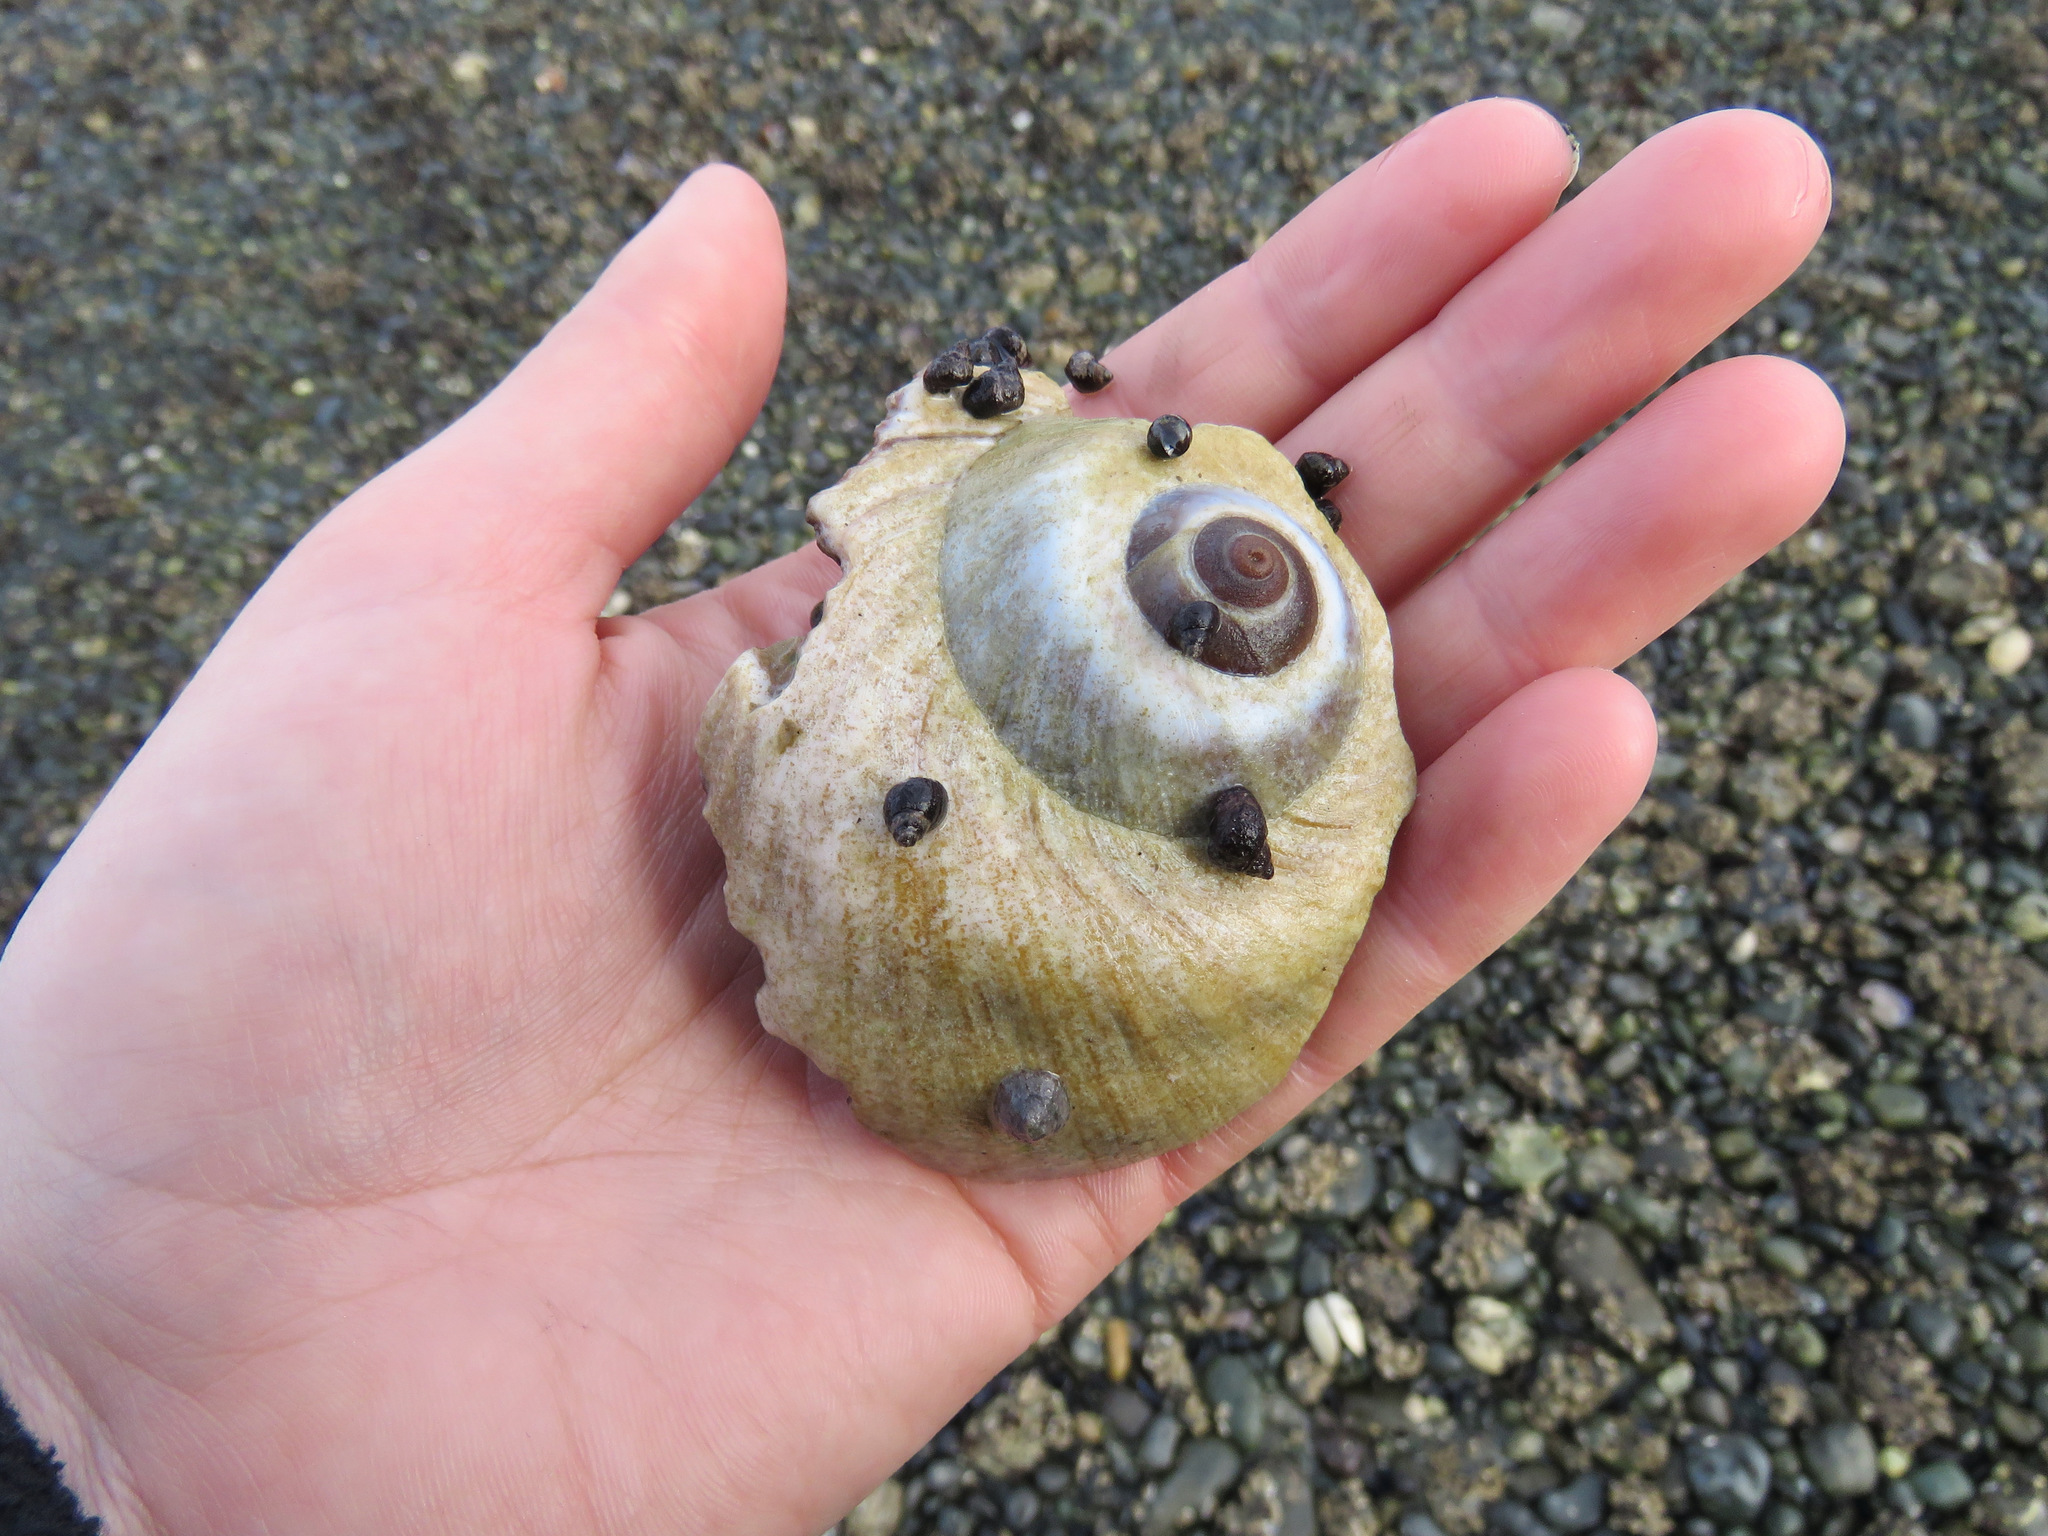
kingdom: Animalia
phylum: Mollusca
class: Gastropoda
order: Littorinimorpha
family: Naticidae
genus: Neverita
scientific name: Neverita lewisii
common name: Lewis' moonsnail
